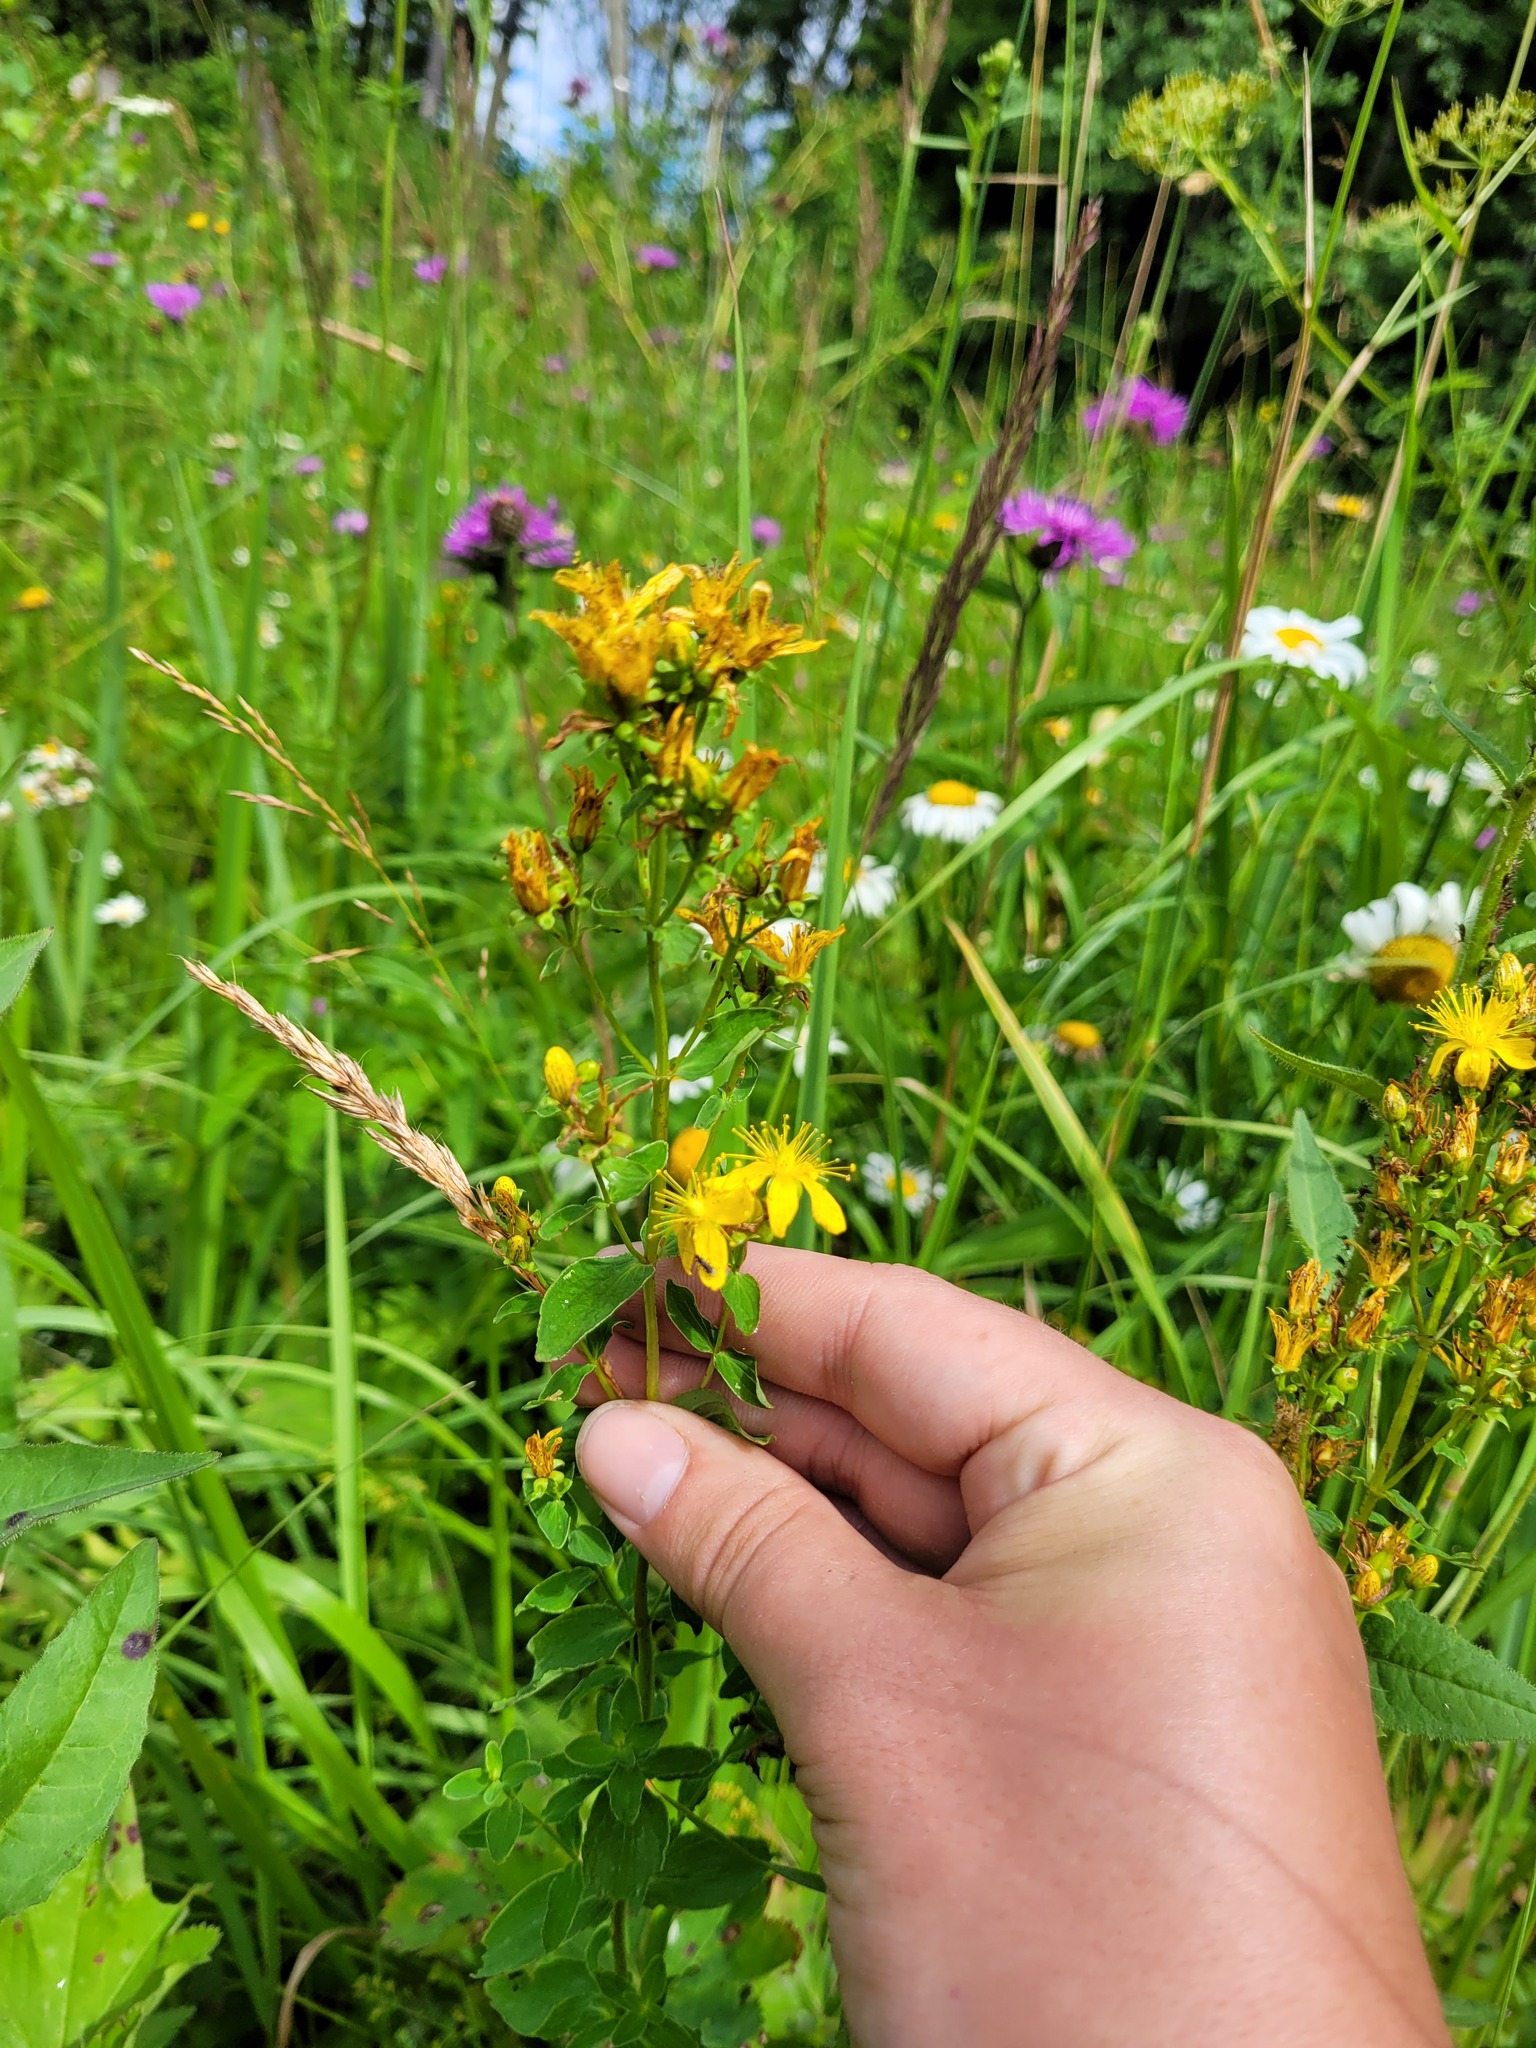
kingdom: Plantae
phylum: Tracheophyta
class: Magnoliopsida
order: Malpighiales
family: Hypericaceae
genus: Hypericum
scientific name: Hypericum maculatum
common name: Imperforate st. john's-wort
